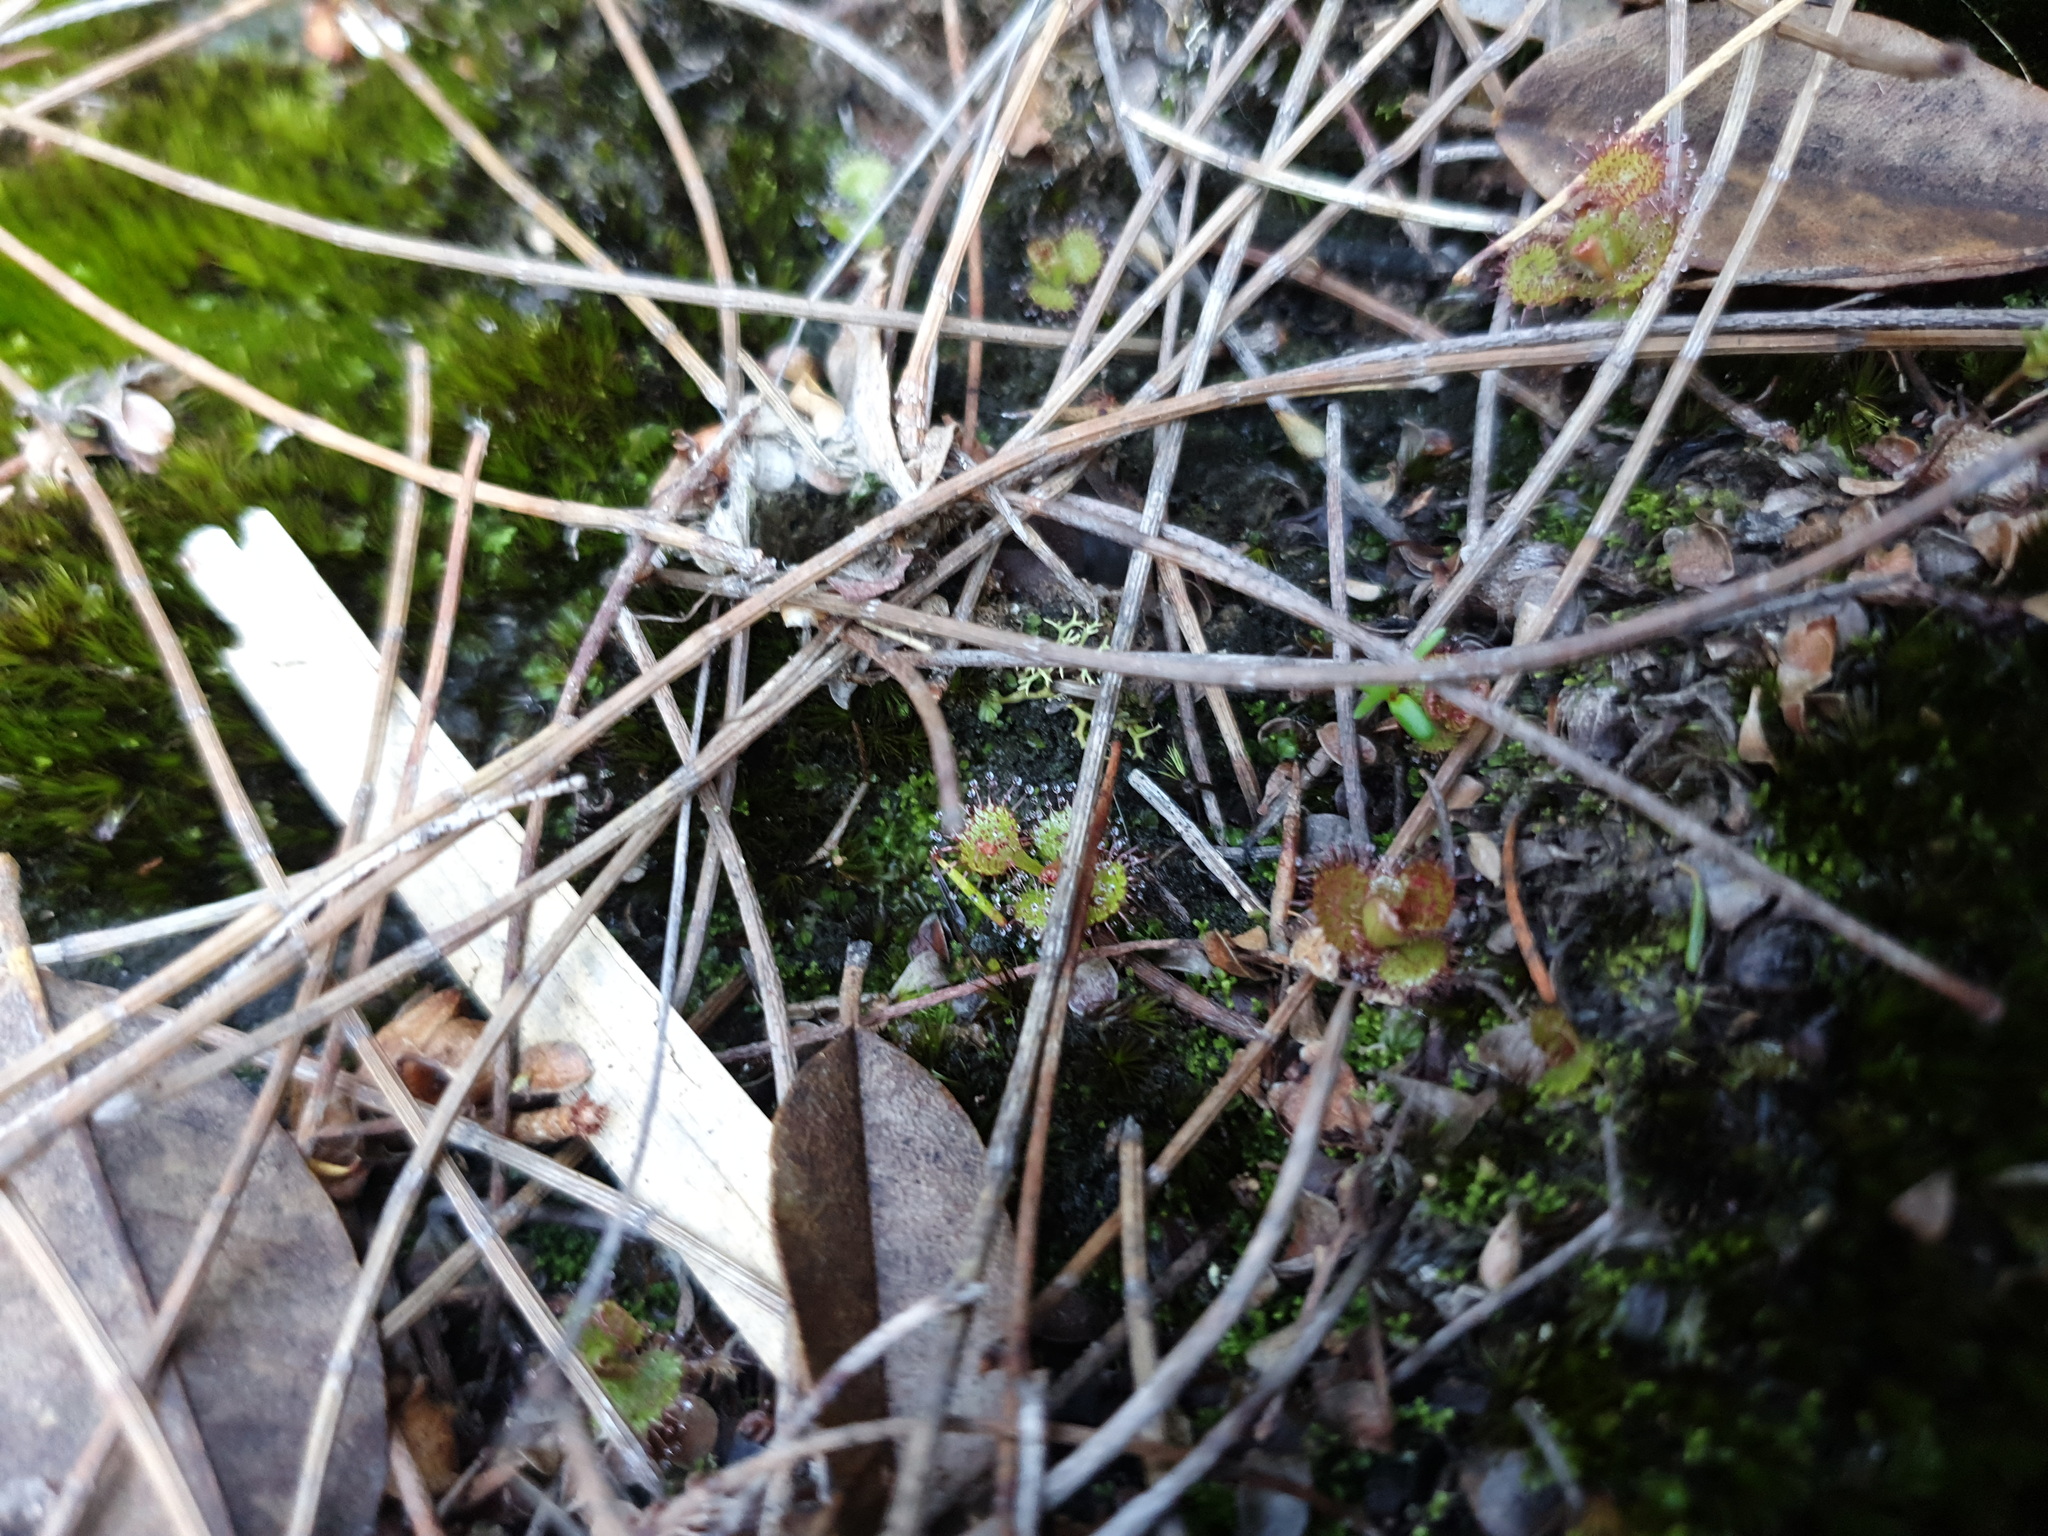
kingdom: Plantae
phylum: Tracheophyta
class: Magnoliopsida
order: Caryophyllales
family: Droseraceae
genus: Drosera
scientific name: Drosera monticola
